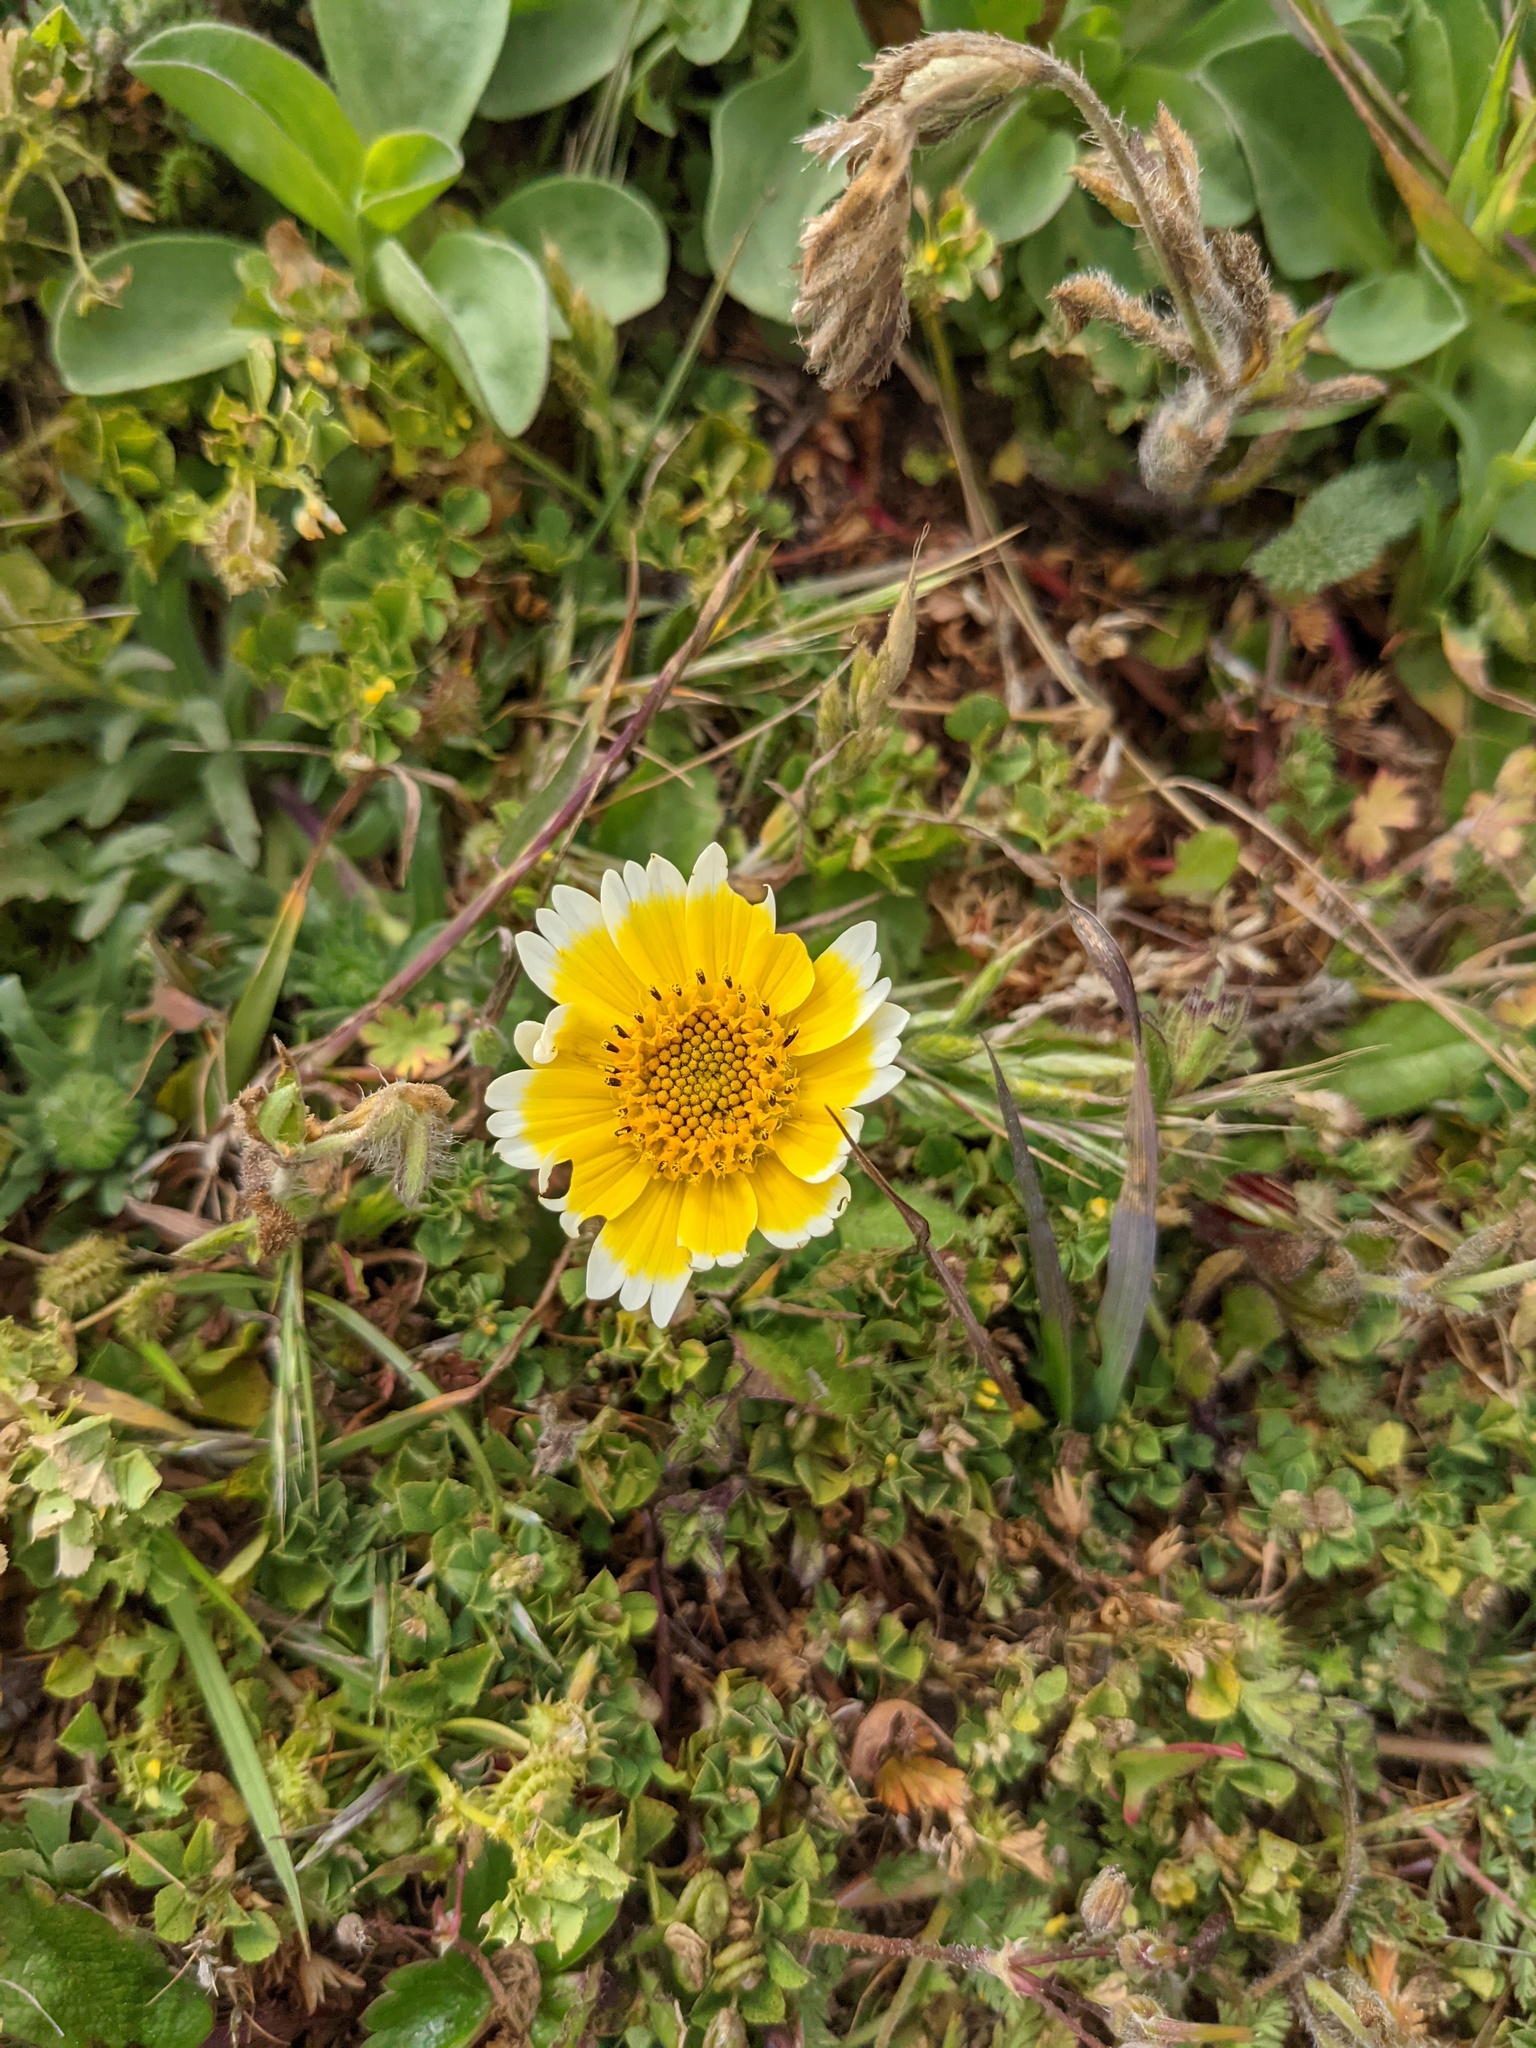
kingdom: Plantae
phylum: Tracheophyta
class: Magnoliopsida
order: Asterales
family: Asteraceae
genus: Layia
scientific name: Layia platyglossa
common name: Tidy-tips
